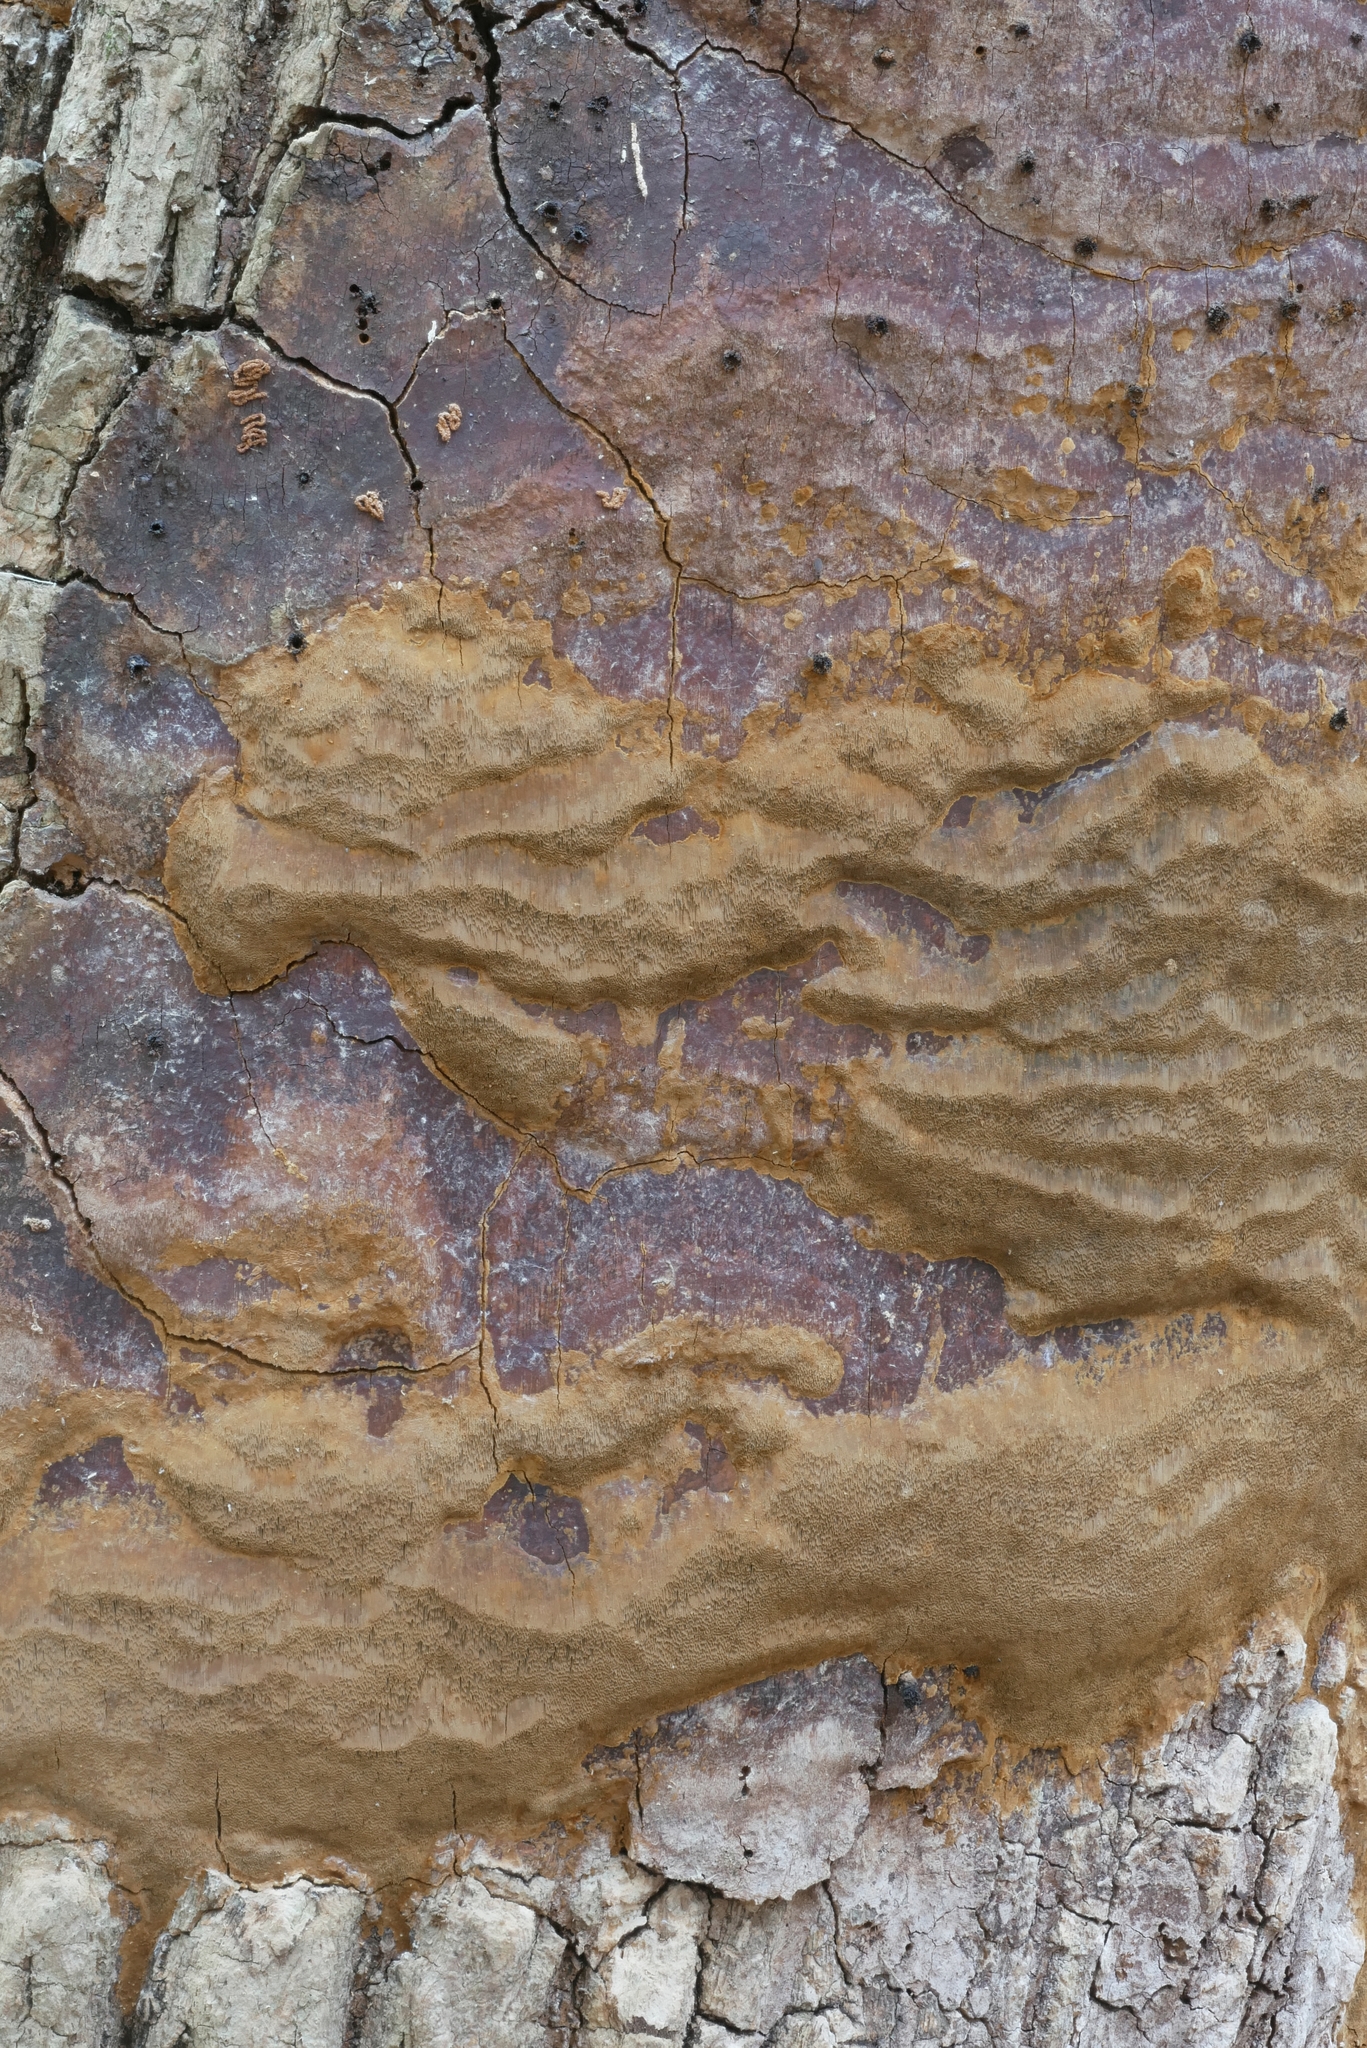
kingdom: Fungi
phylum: Basidiomycota
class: Agaricomycetes
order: Hymenochaetales
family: Hymenochaetaceae
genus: Fomitiporia
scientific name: Fomitiporia punctata
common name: Elbowpatch crust
